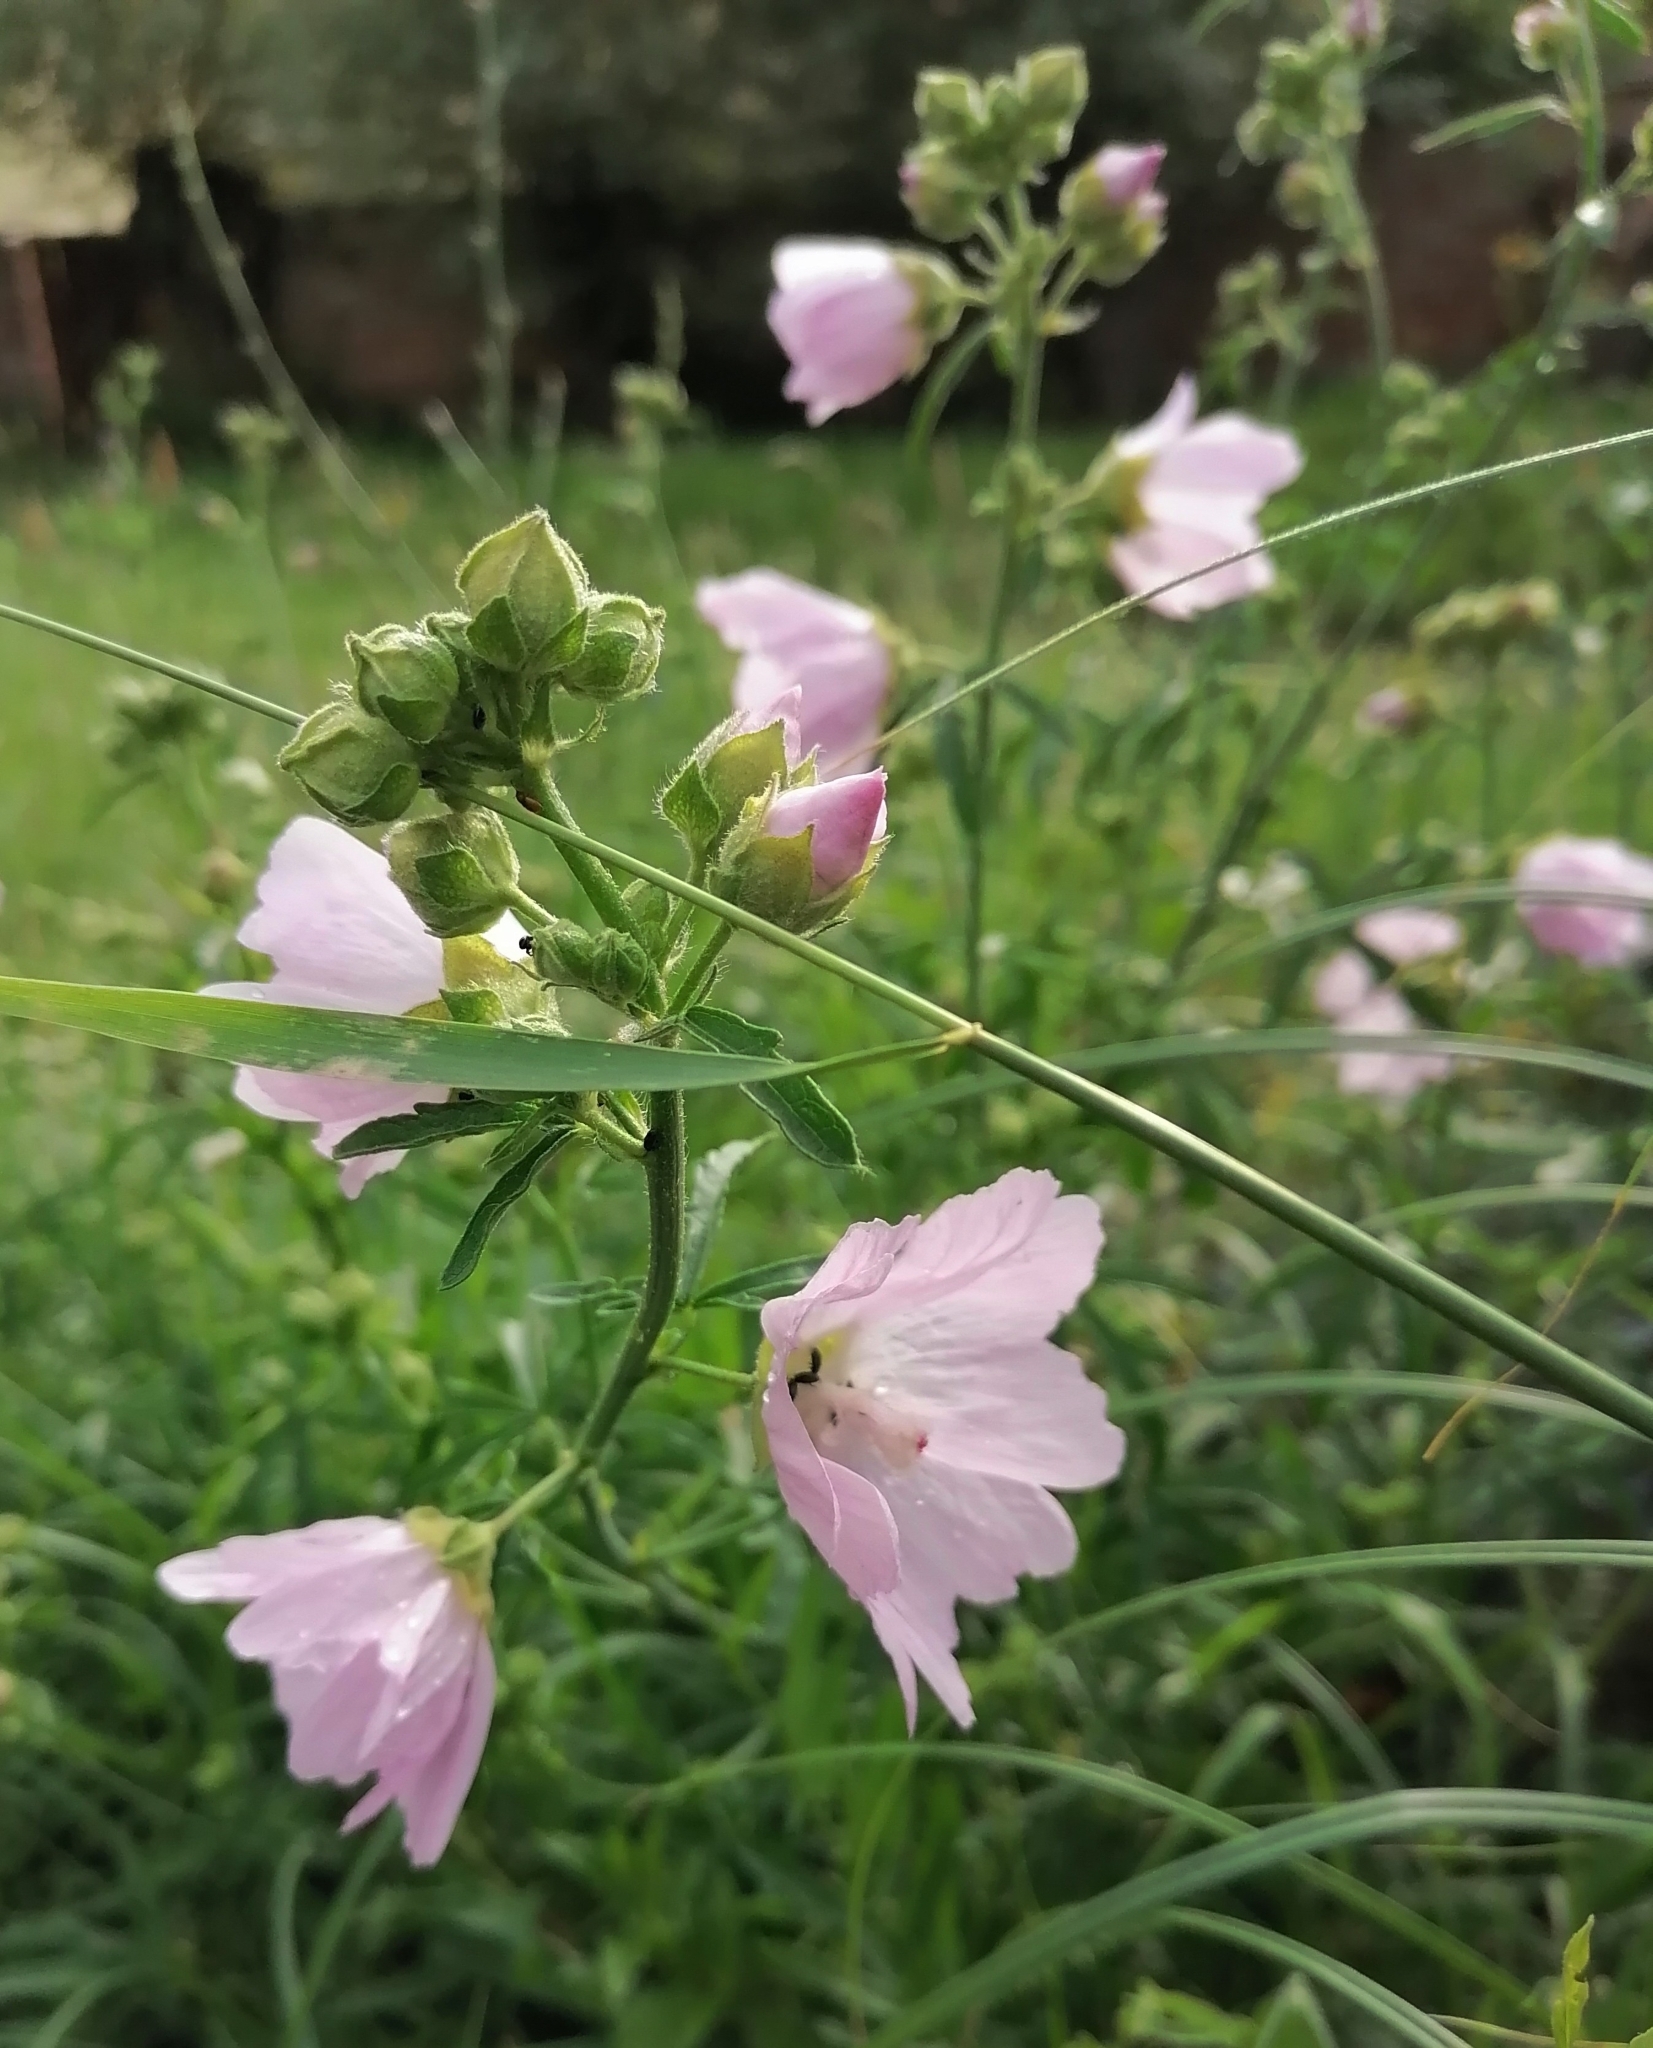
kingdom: Plantae
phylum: Tracheophyta
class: Magnoliopsida
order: Malvales
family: Malvaceae
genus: Malva
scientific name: Malva alcea
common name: Greater musk-mallow
